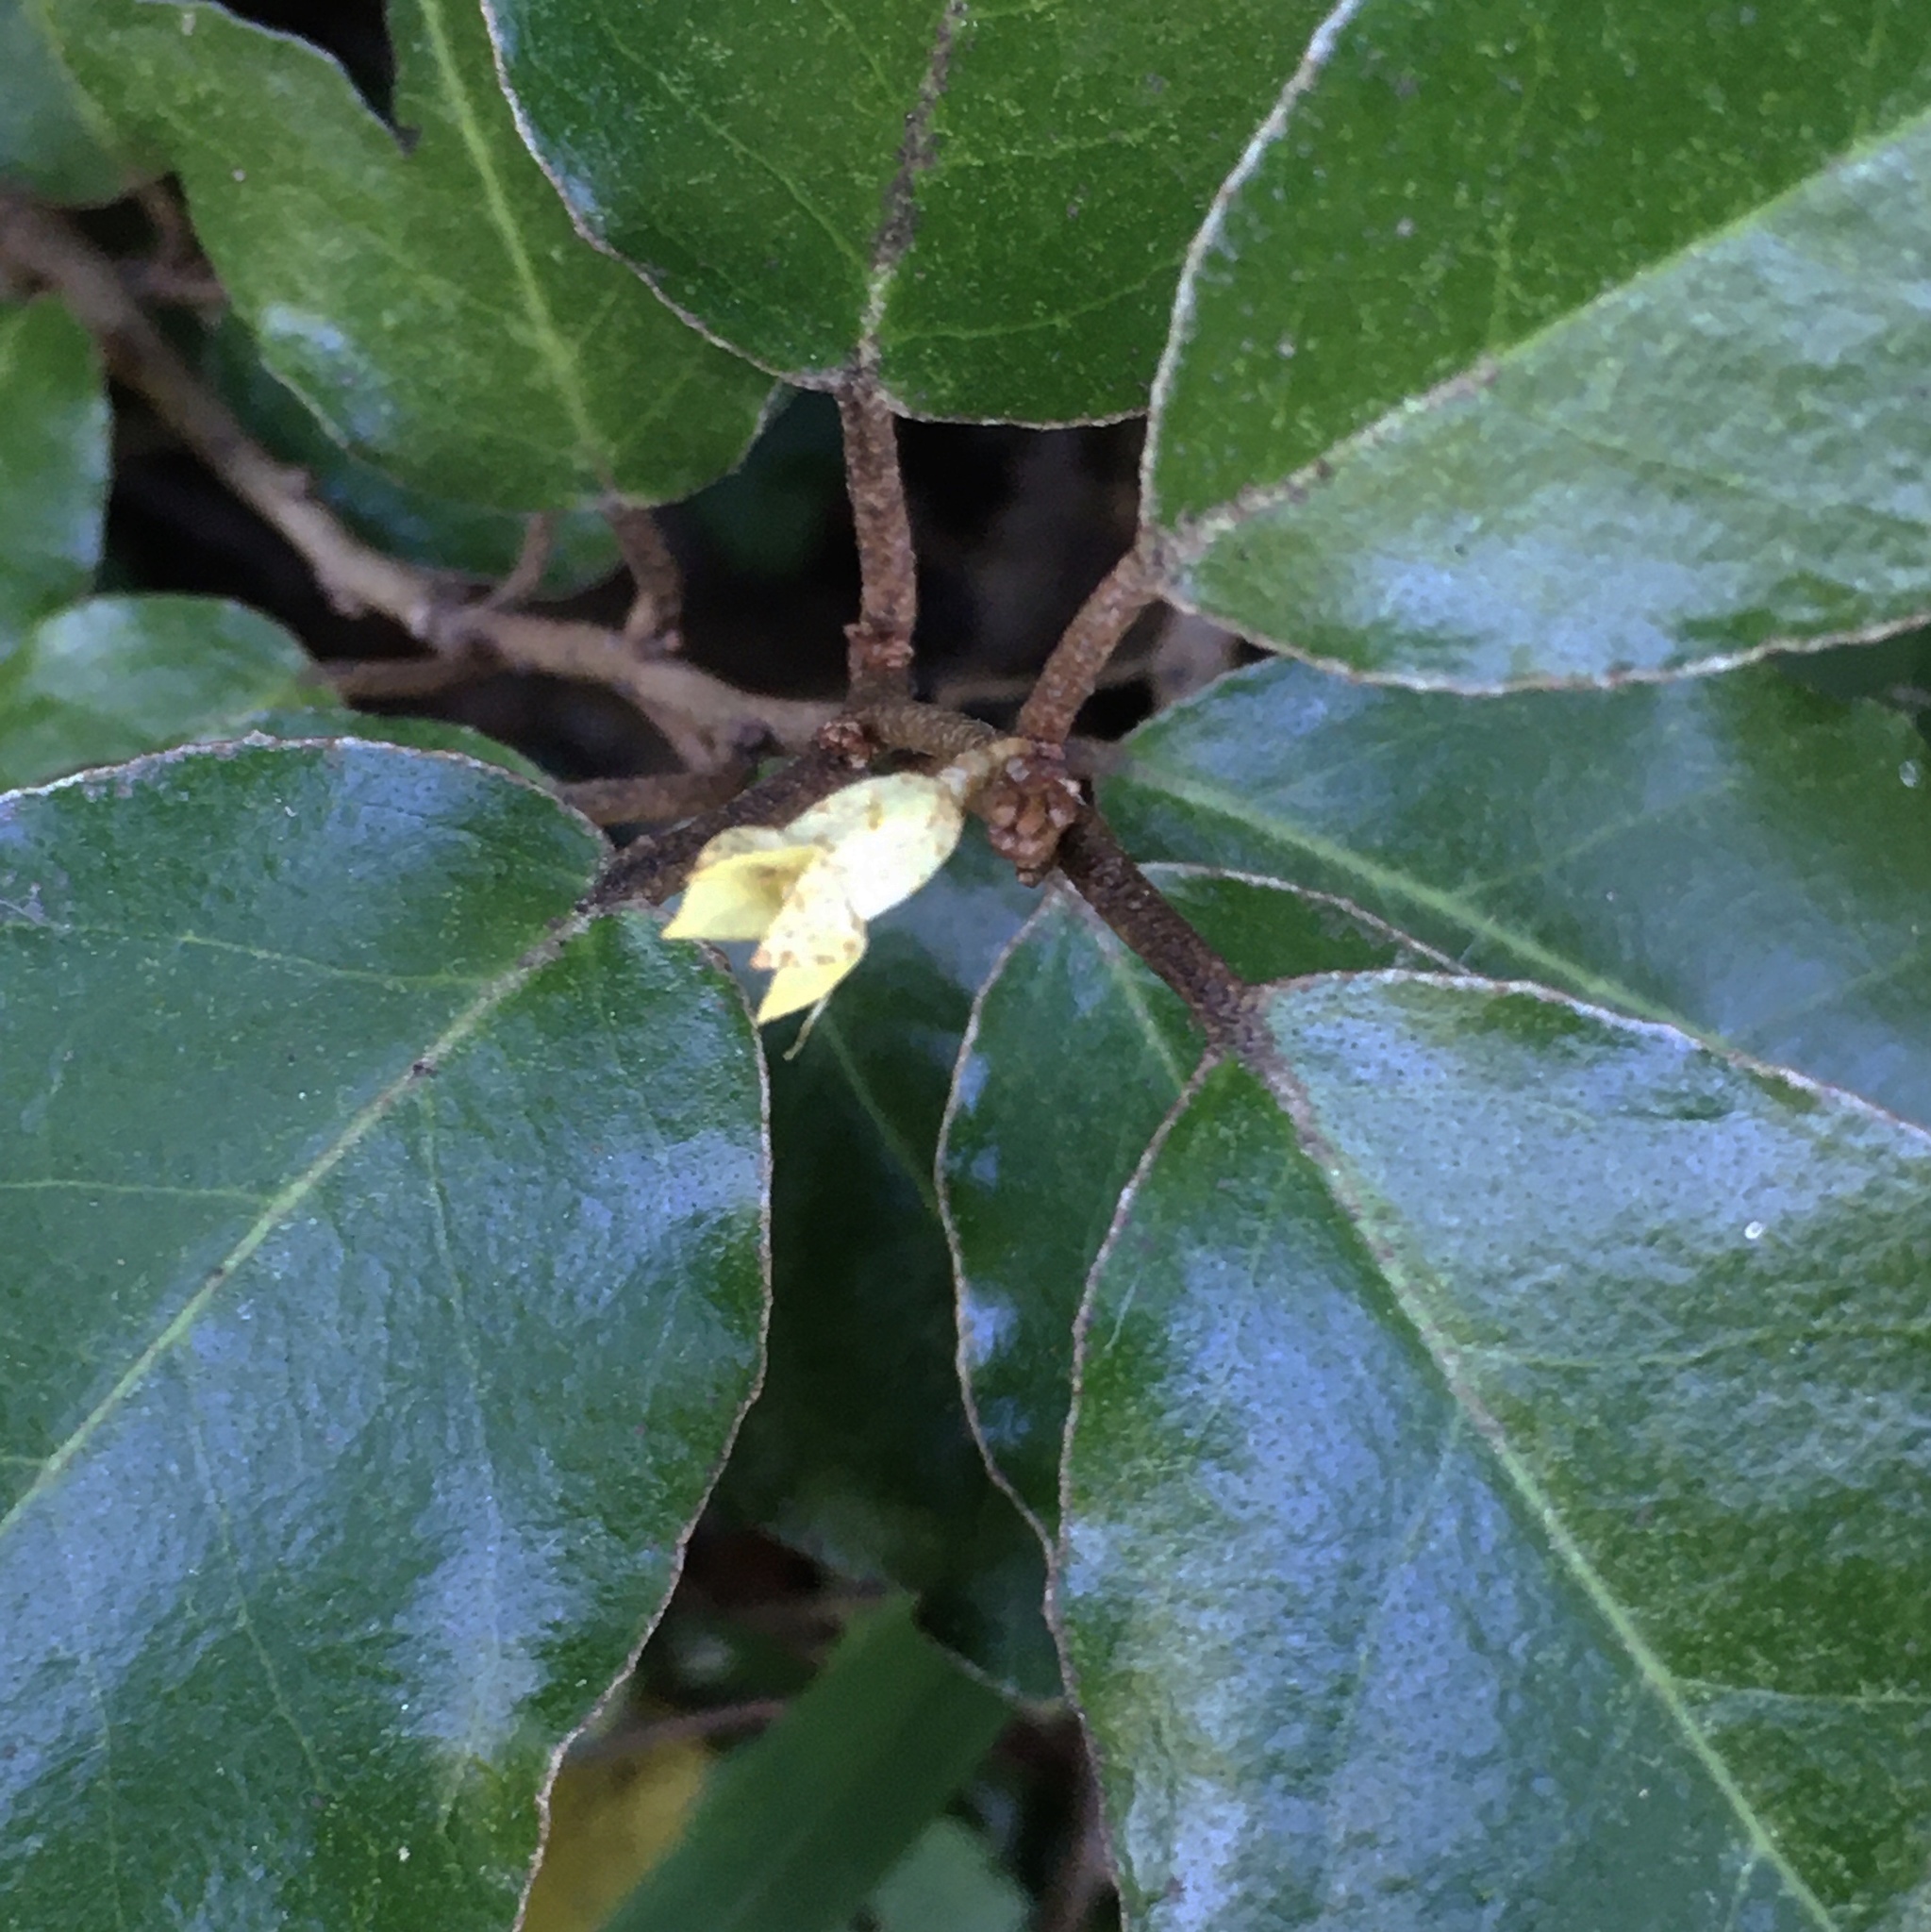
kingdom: Plantae
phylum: Tracheophyta
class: Magnoliopsida
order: Rosales
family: Elaeagnaceae
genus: Elaeagnus
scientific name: Elaeagnus pungens
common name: Spiny oleaster
